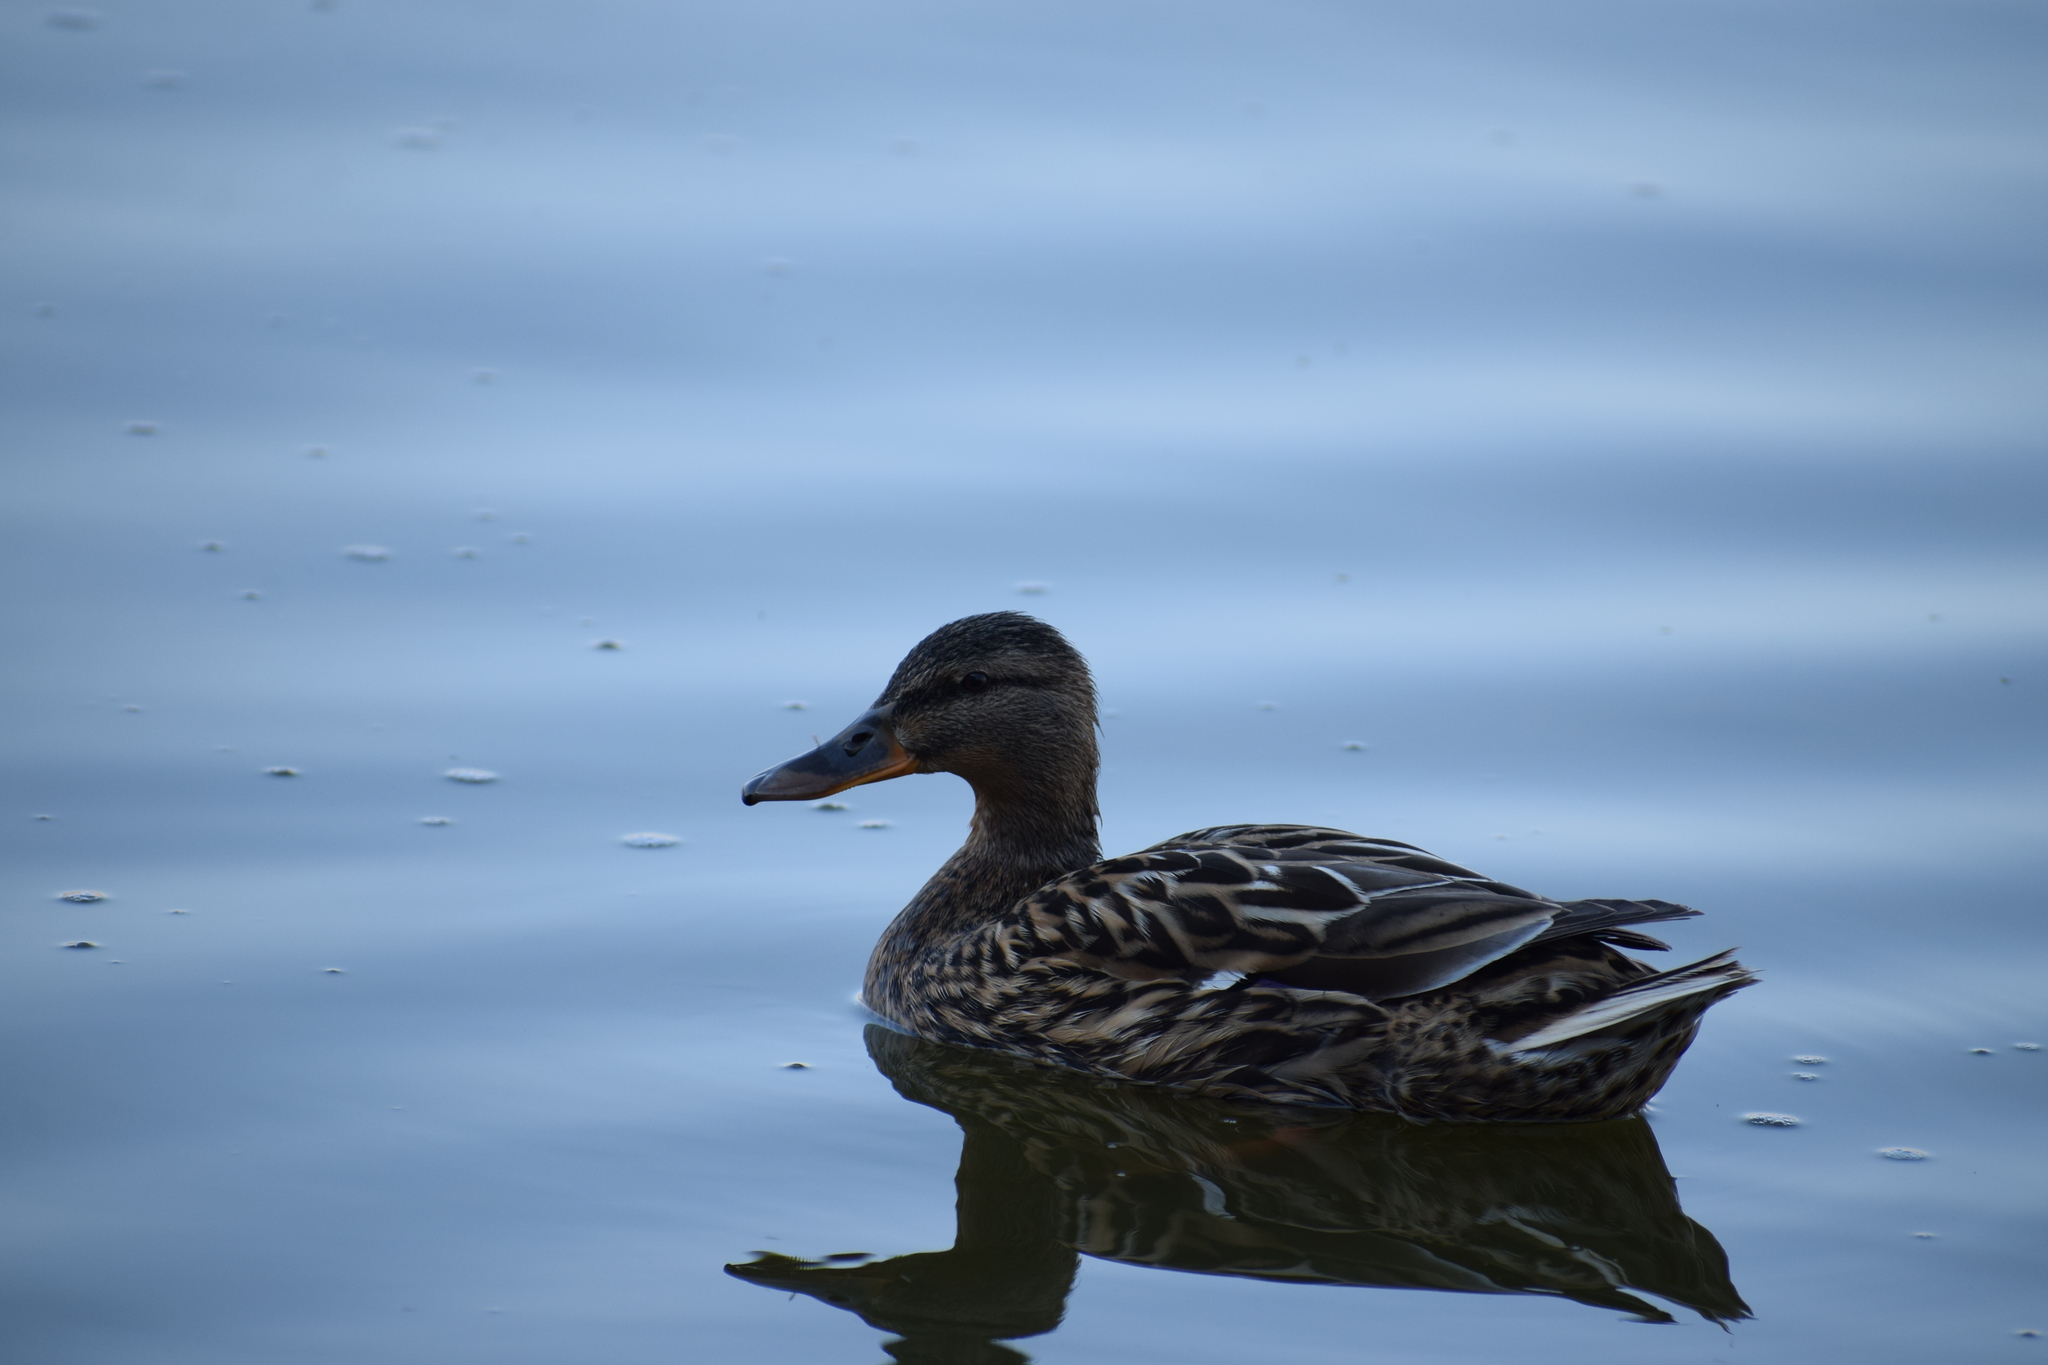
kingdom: Animalia
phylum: Chordata
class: Aves
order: Anseriformes
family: Anatidae
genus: Anas
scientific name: Anas platyrhynchos
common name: Mallard
